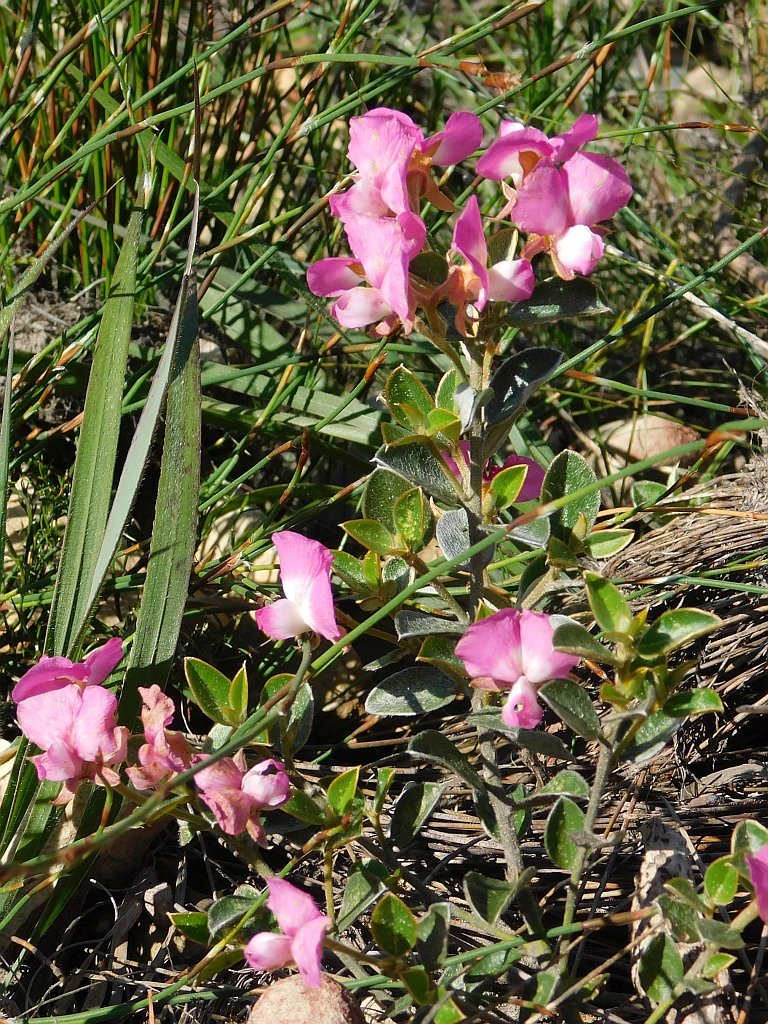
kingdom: Plantae
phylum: Tracheophyta
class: Magnoliopsida
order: Fabales
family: Fabaceae
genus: Podalyria
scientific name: Podalyria biflora
